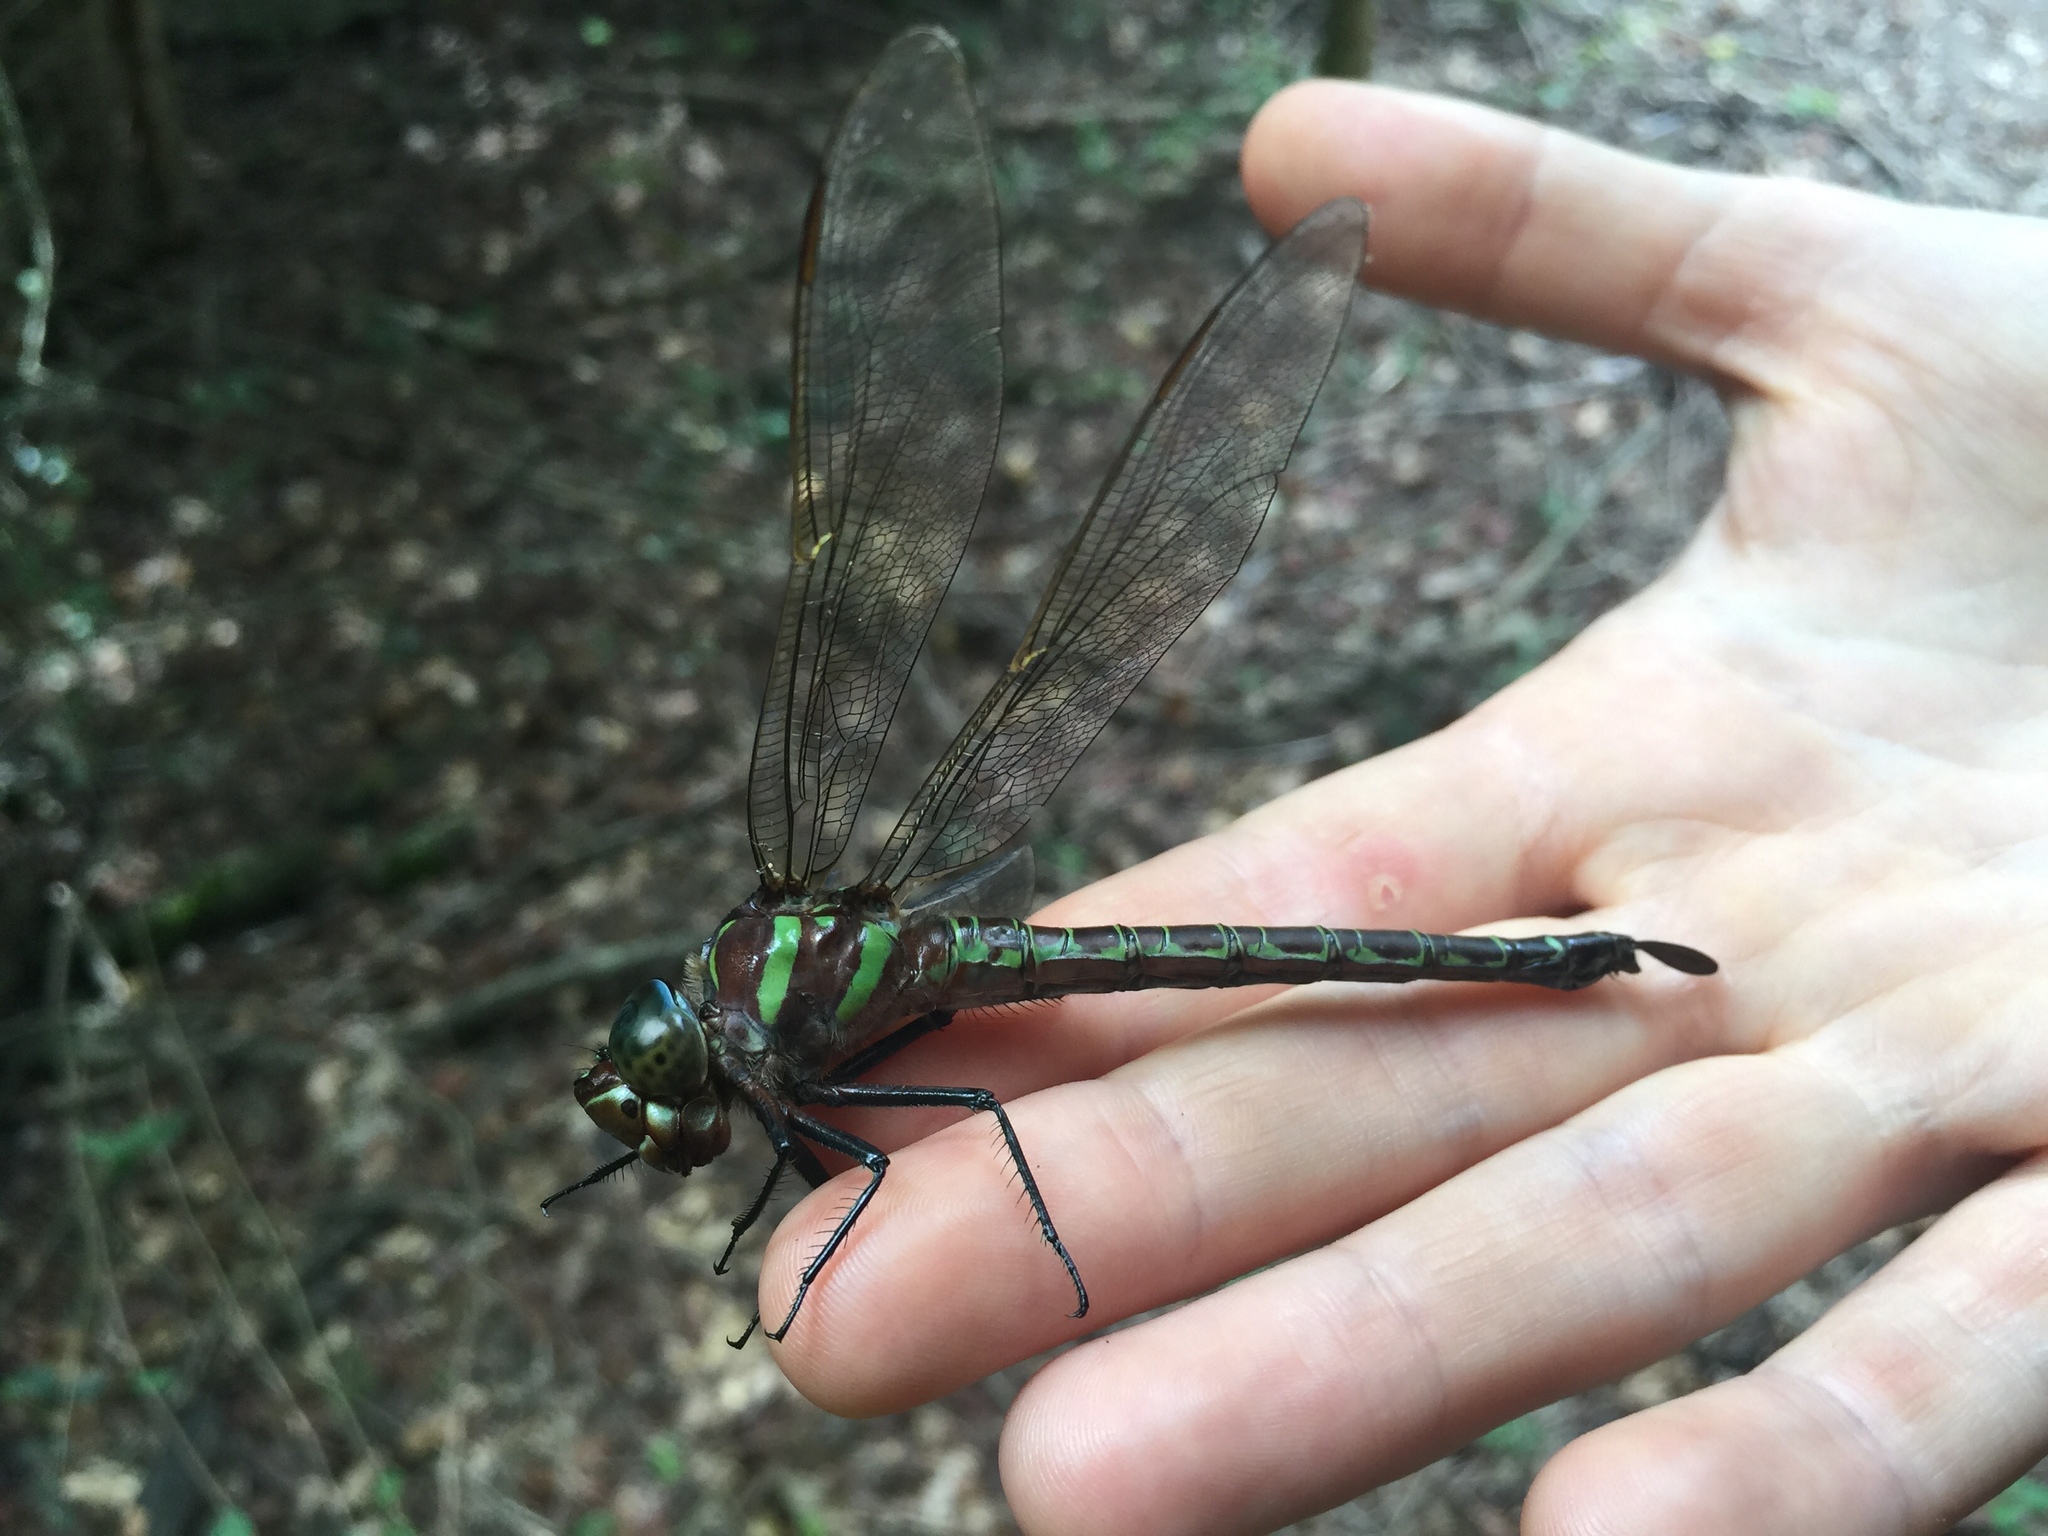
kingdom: Animalia
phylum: Arthropoda
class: Insecta
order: Odonata
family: Aeshnidae
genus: Epiaeschna
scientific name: Epiaeschna heros
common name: Swamp darner
